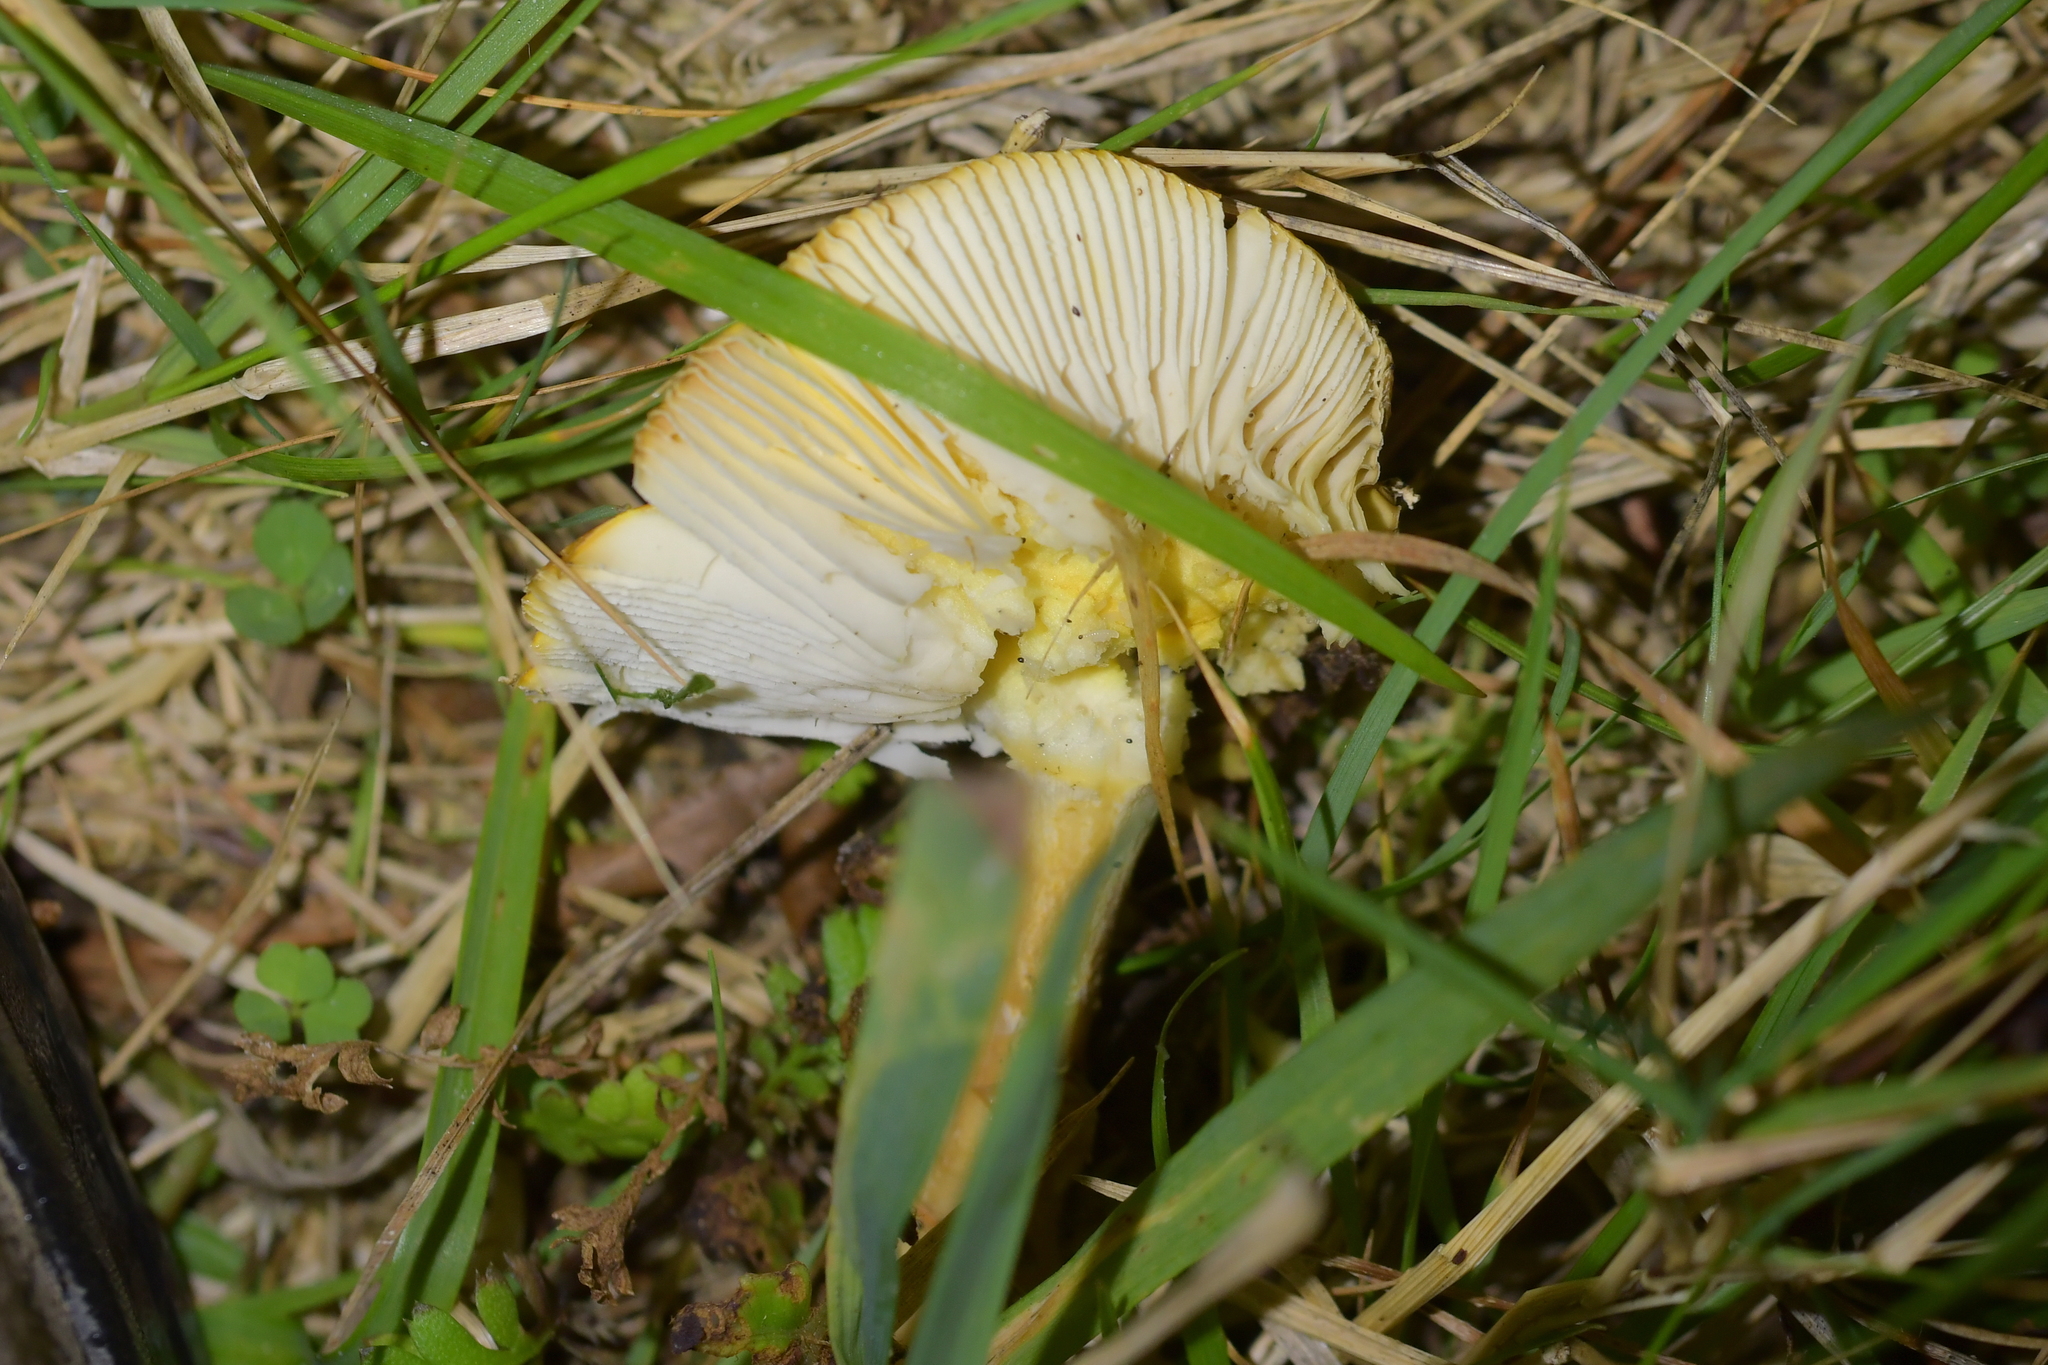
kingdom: Fungi
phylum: Basidiomycota
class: Agaricomycetes
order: Agaricales
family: Amanitaceae
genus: Amanita
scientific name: Amanita muscaria
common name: Fly agaric
